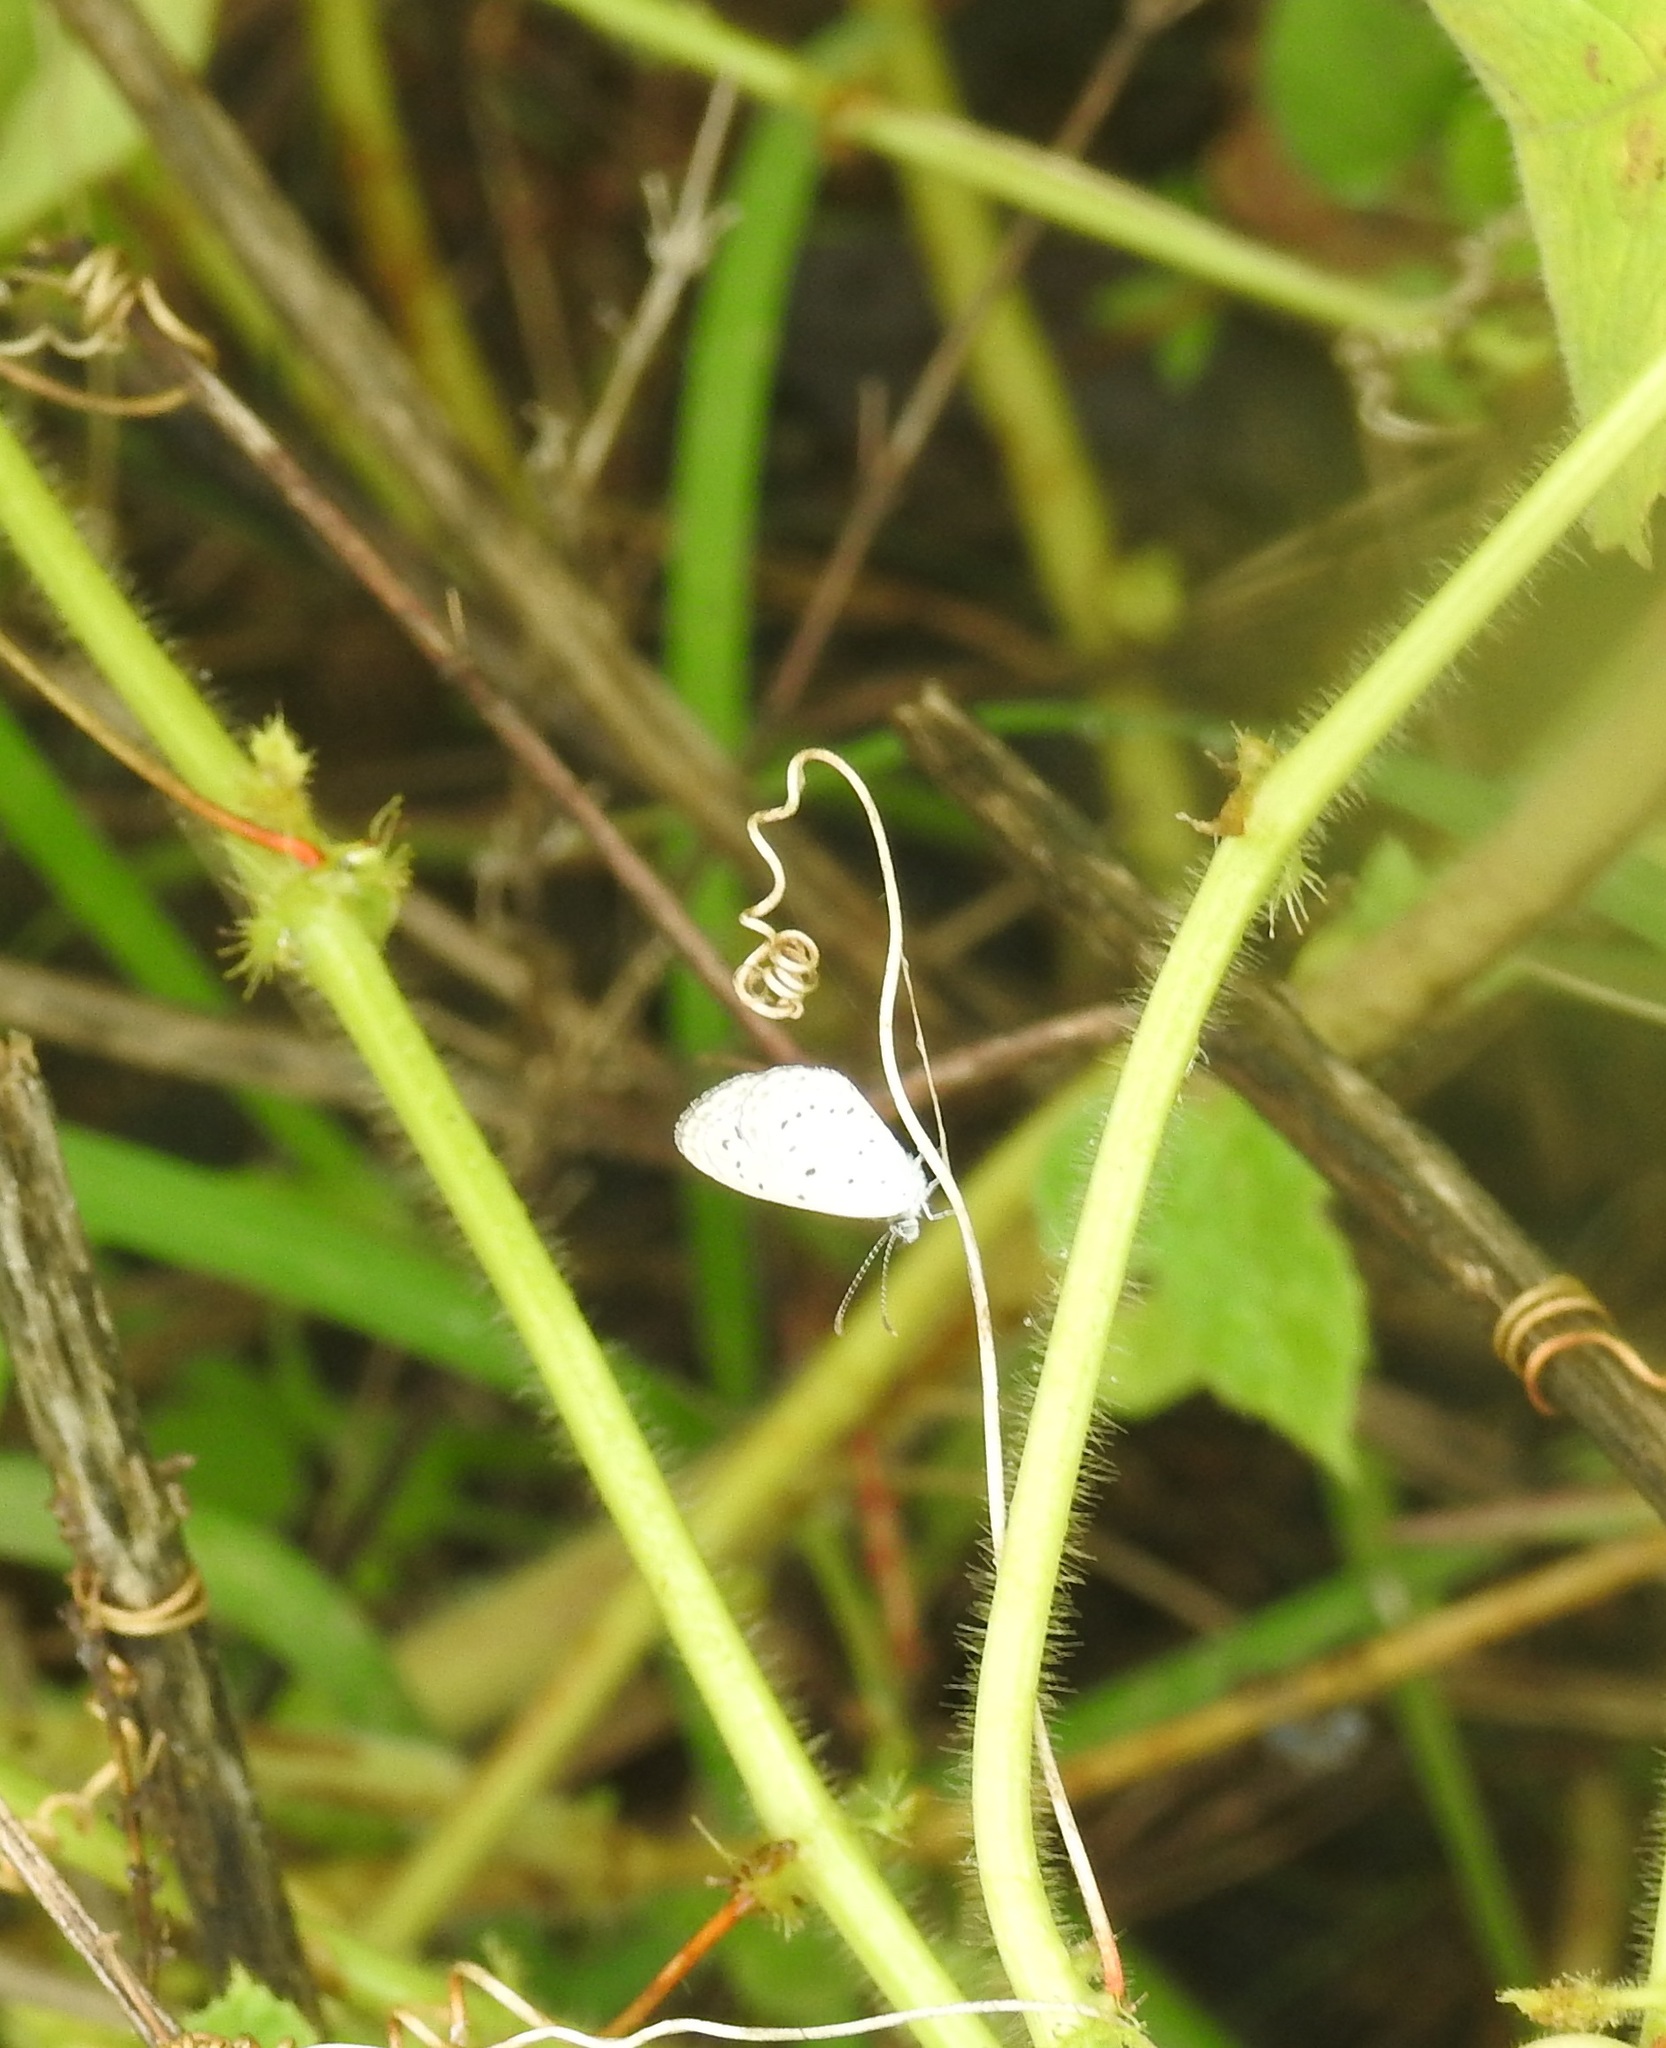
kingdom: Animalia
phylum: Arthropoda
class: Insecta
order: Lepidoptera
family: Lycaenidae
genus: Zizula
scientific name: Zizula hylax
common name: Gaika blue
